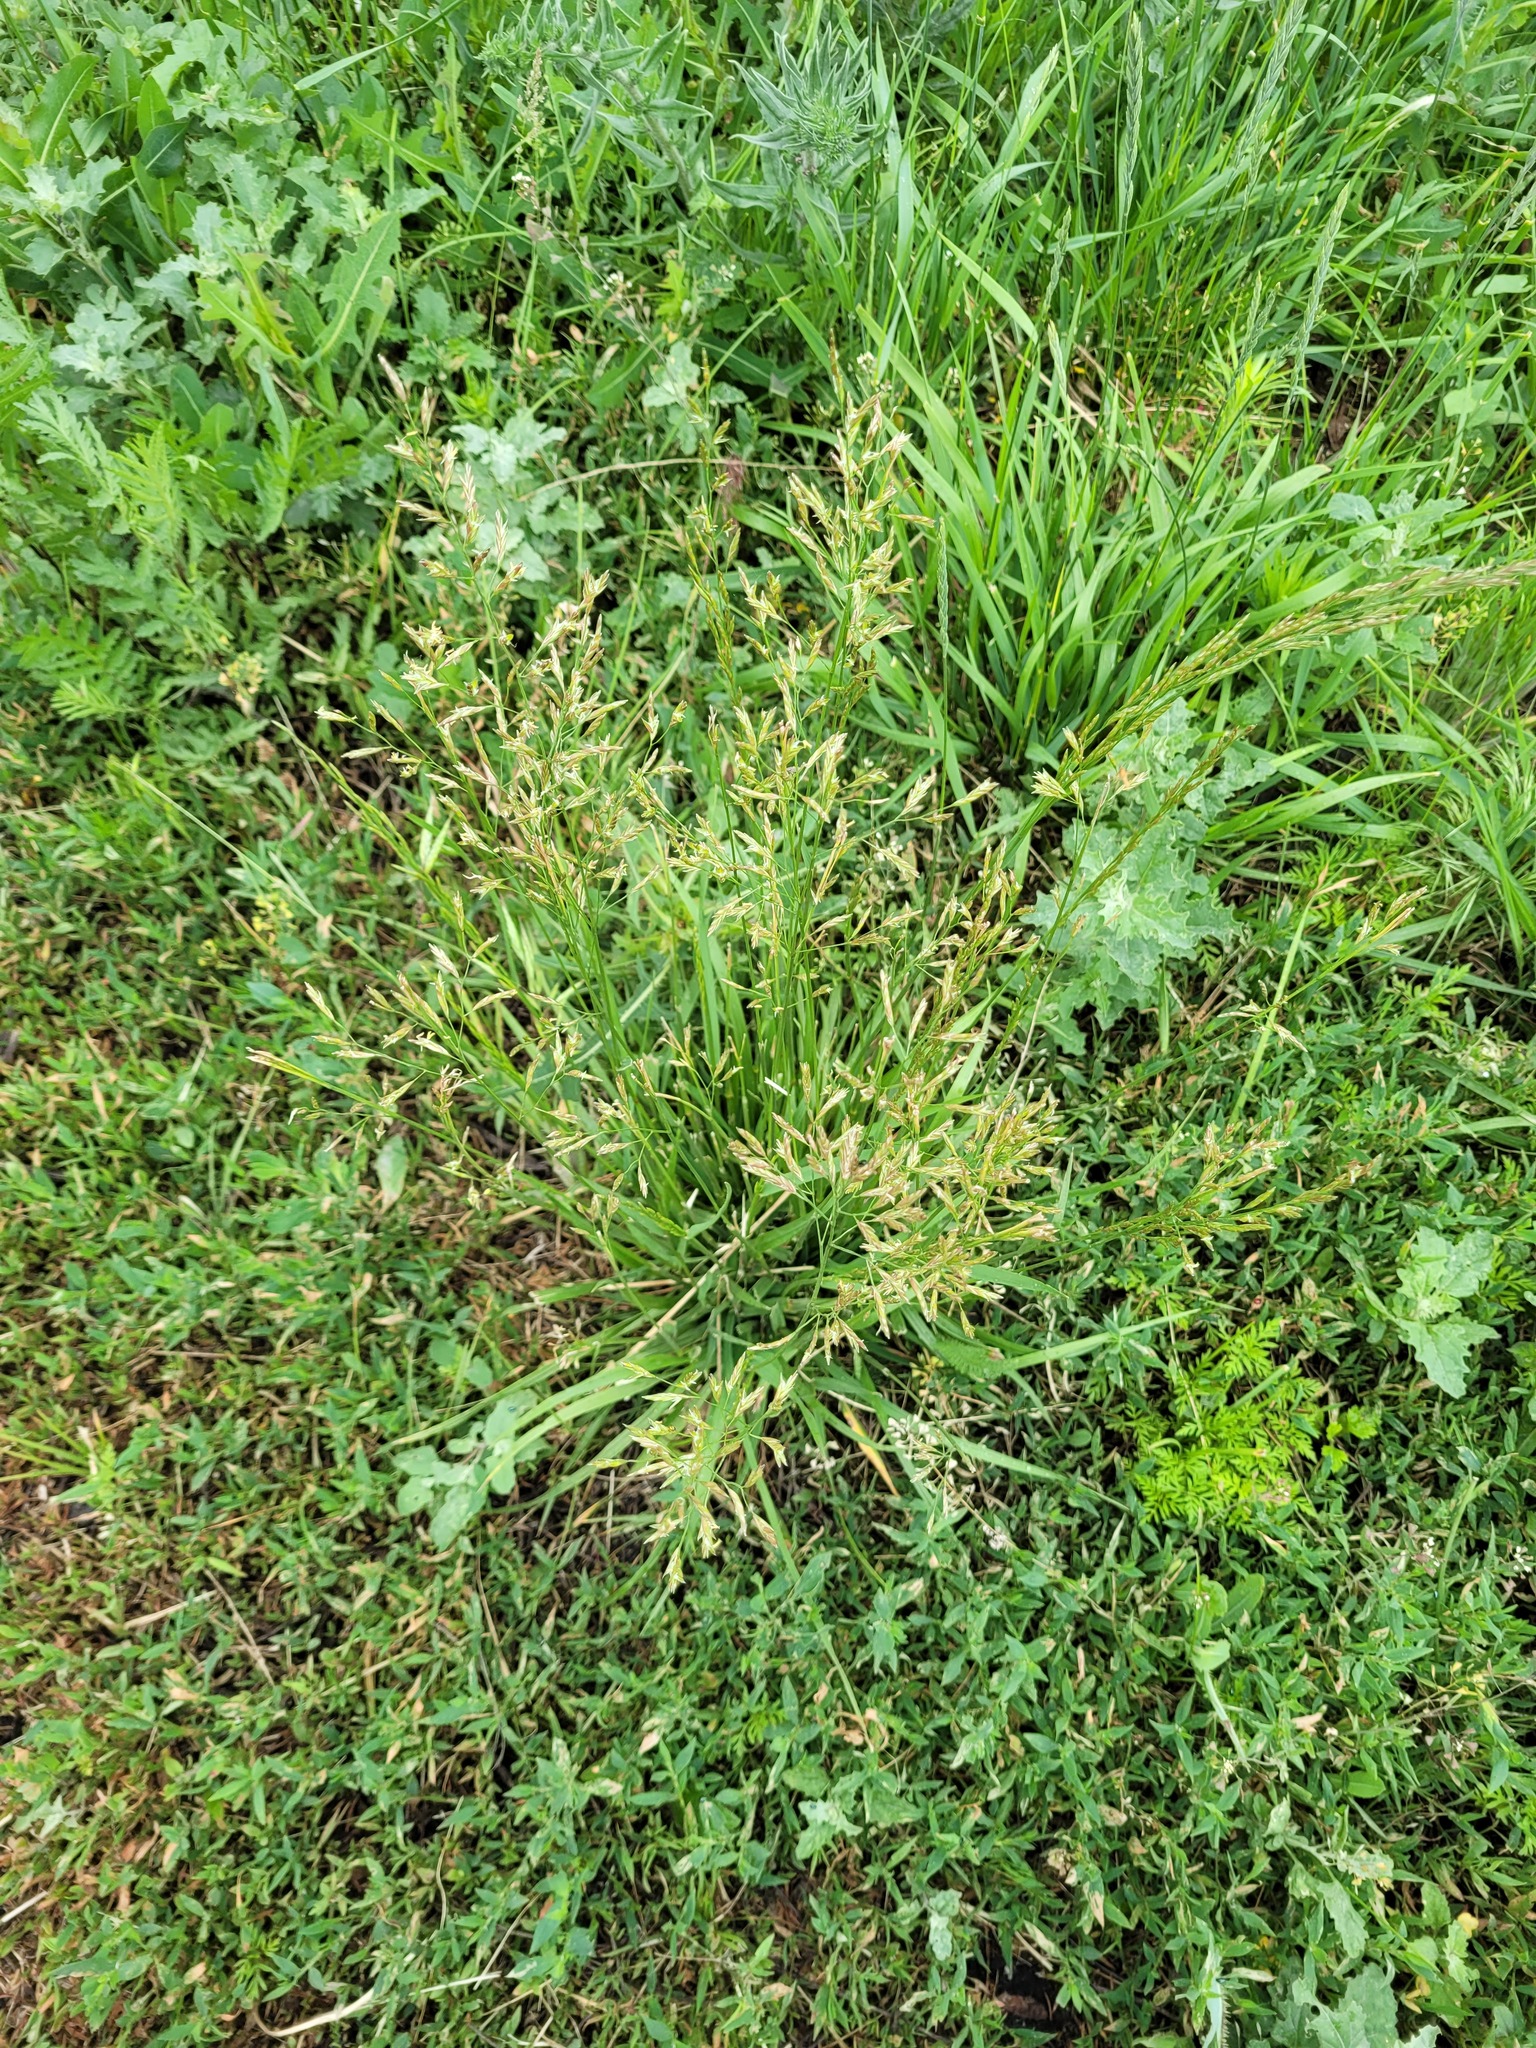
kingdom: Plantae
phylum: Tracheophyta
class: Liliopsida
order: Poales
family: Poaceae
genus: Lolium
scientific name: Lolium pratense
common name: Dover grass
